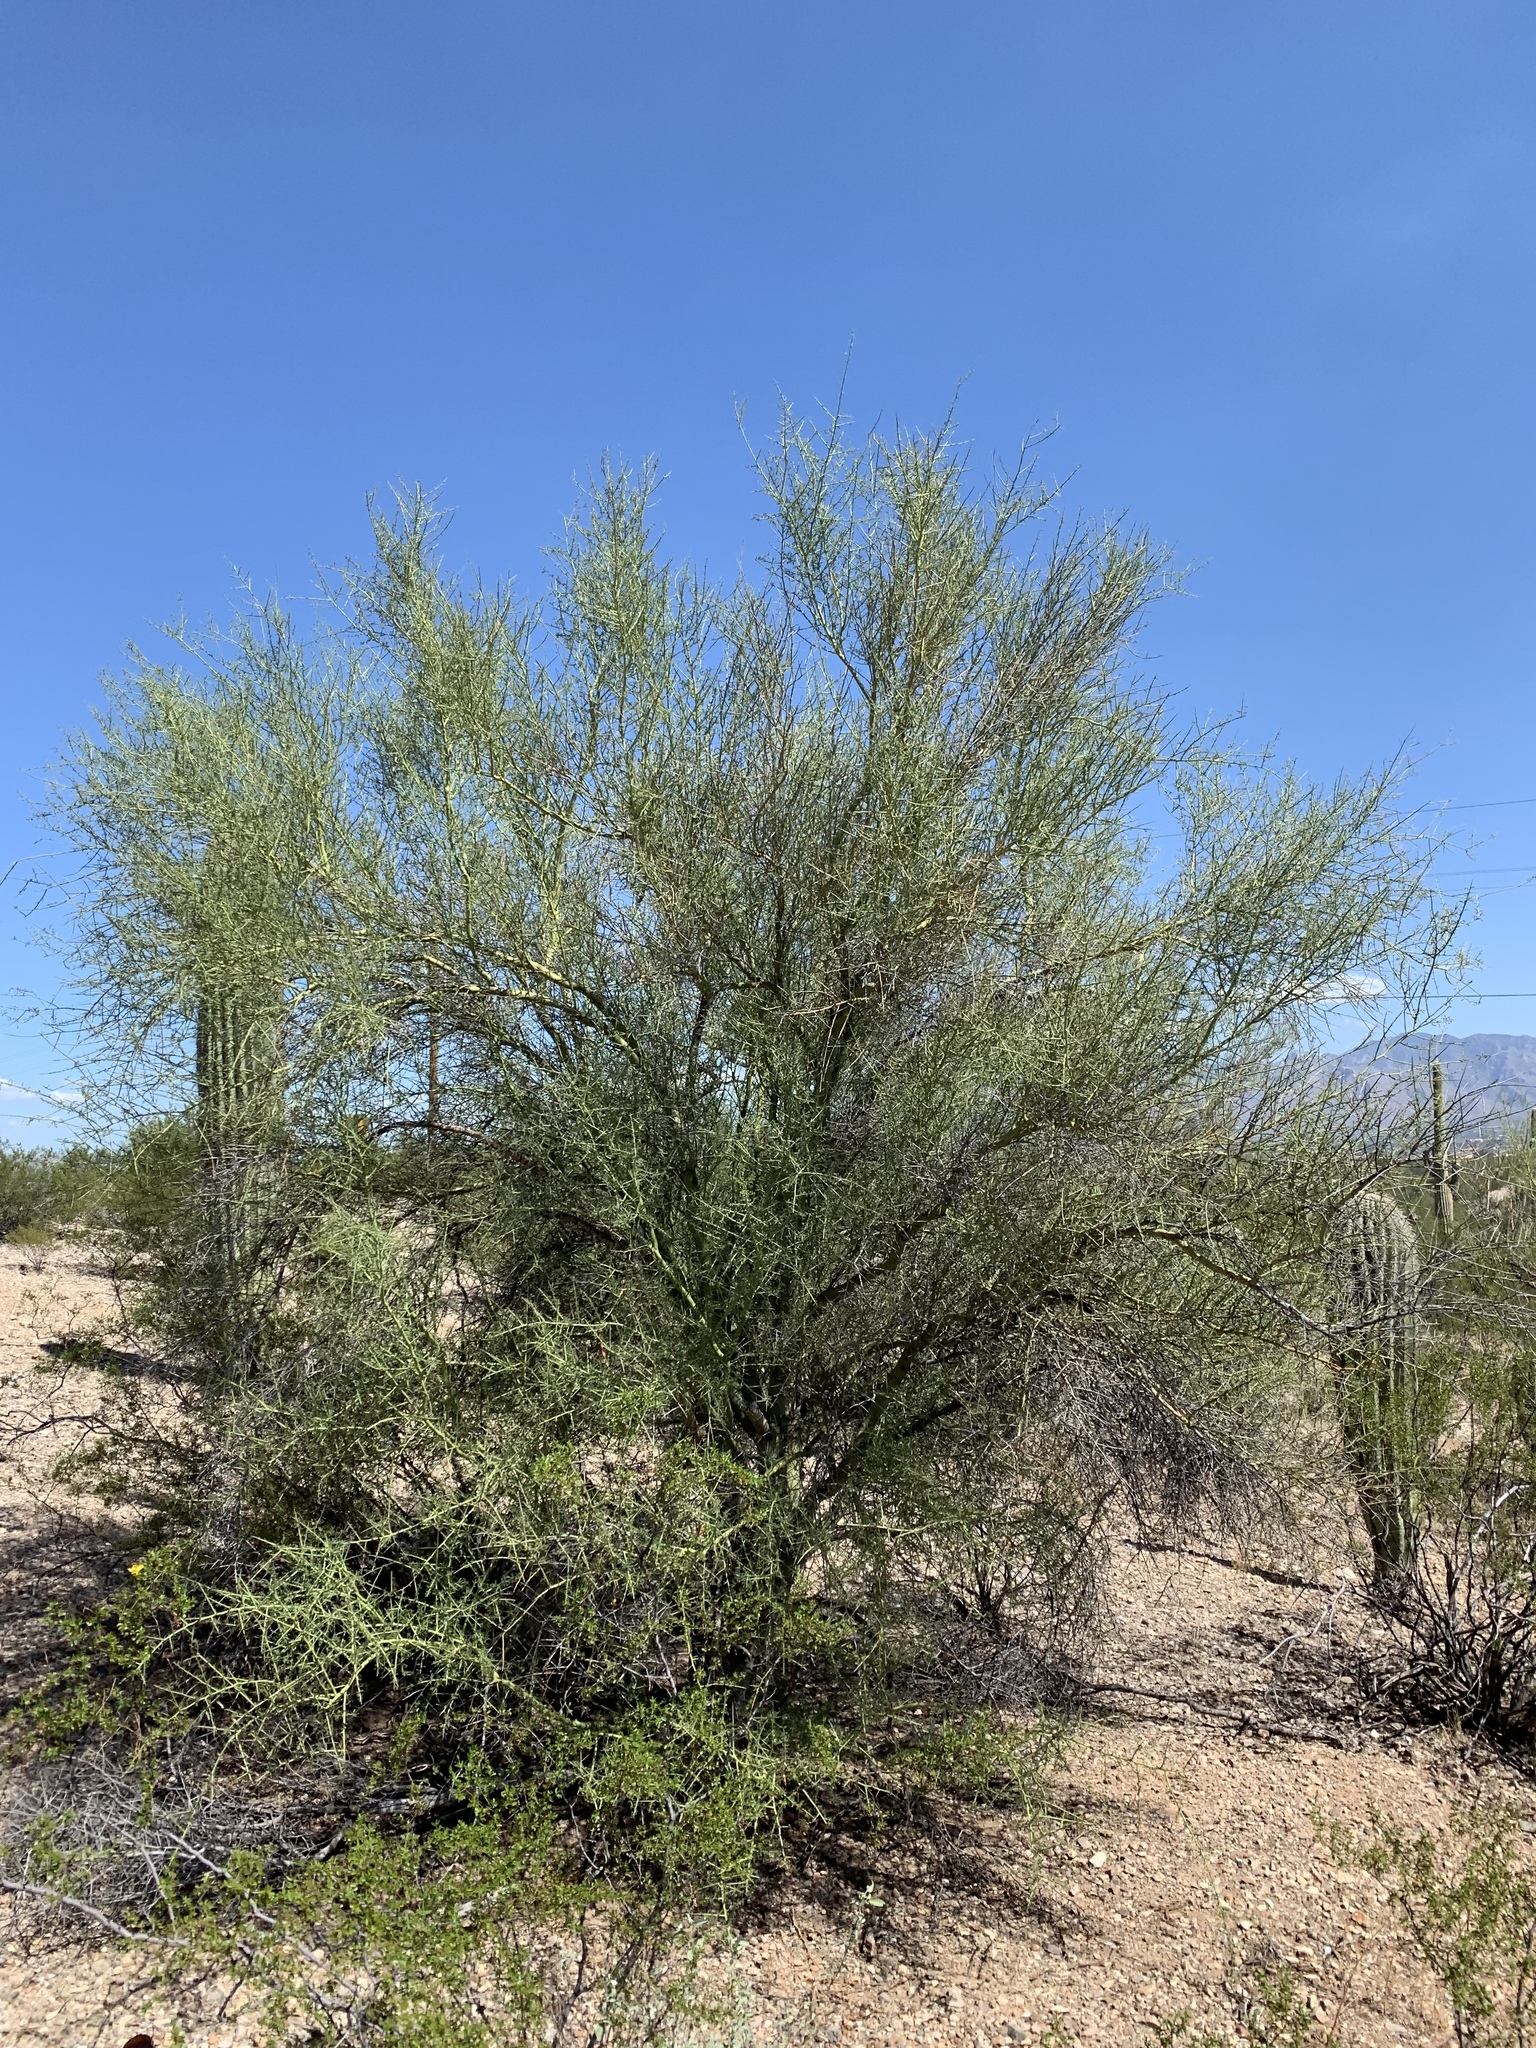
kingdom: Plantae
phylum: Tracheophyta
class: Magnoliopsida
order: Fabales
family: Fabaceae
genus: Parkinsonia
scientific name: Parkinsonia microphylla
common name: Yellow paloverde
